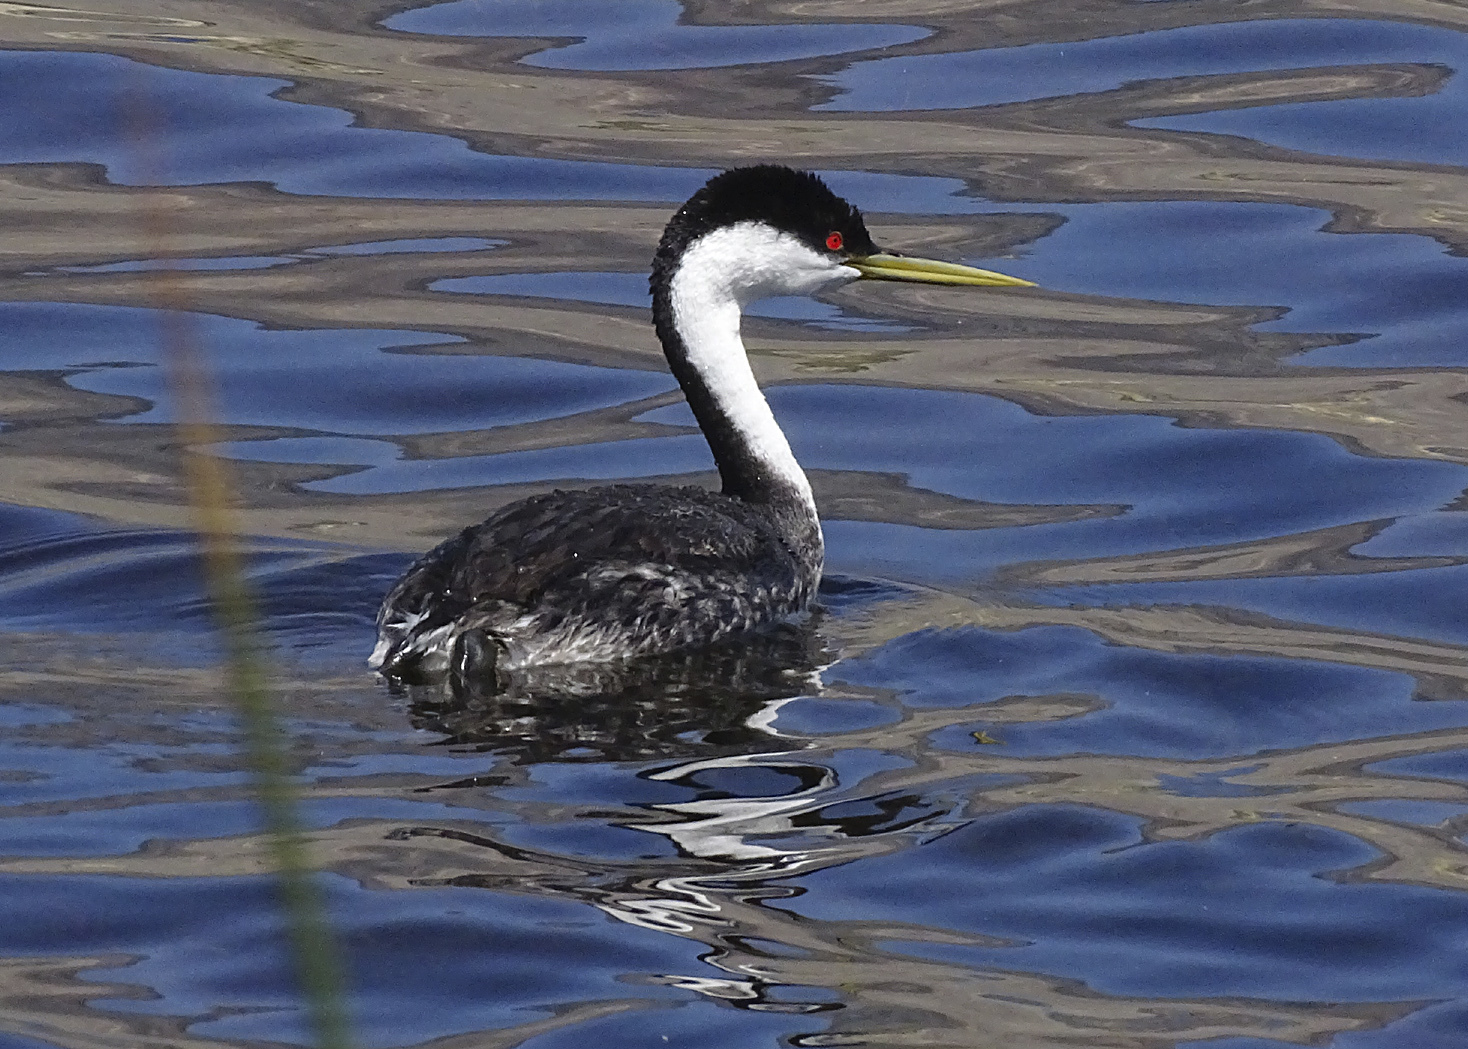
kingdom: Animalia
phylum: Chordata
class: Aves
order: Podicipediformes
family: Podicipedidae
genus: Aechmophorus
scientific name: Aechmophorus occidentalis
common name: Western grebe
